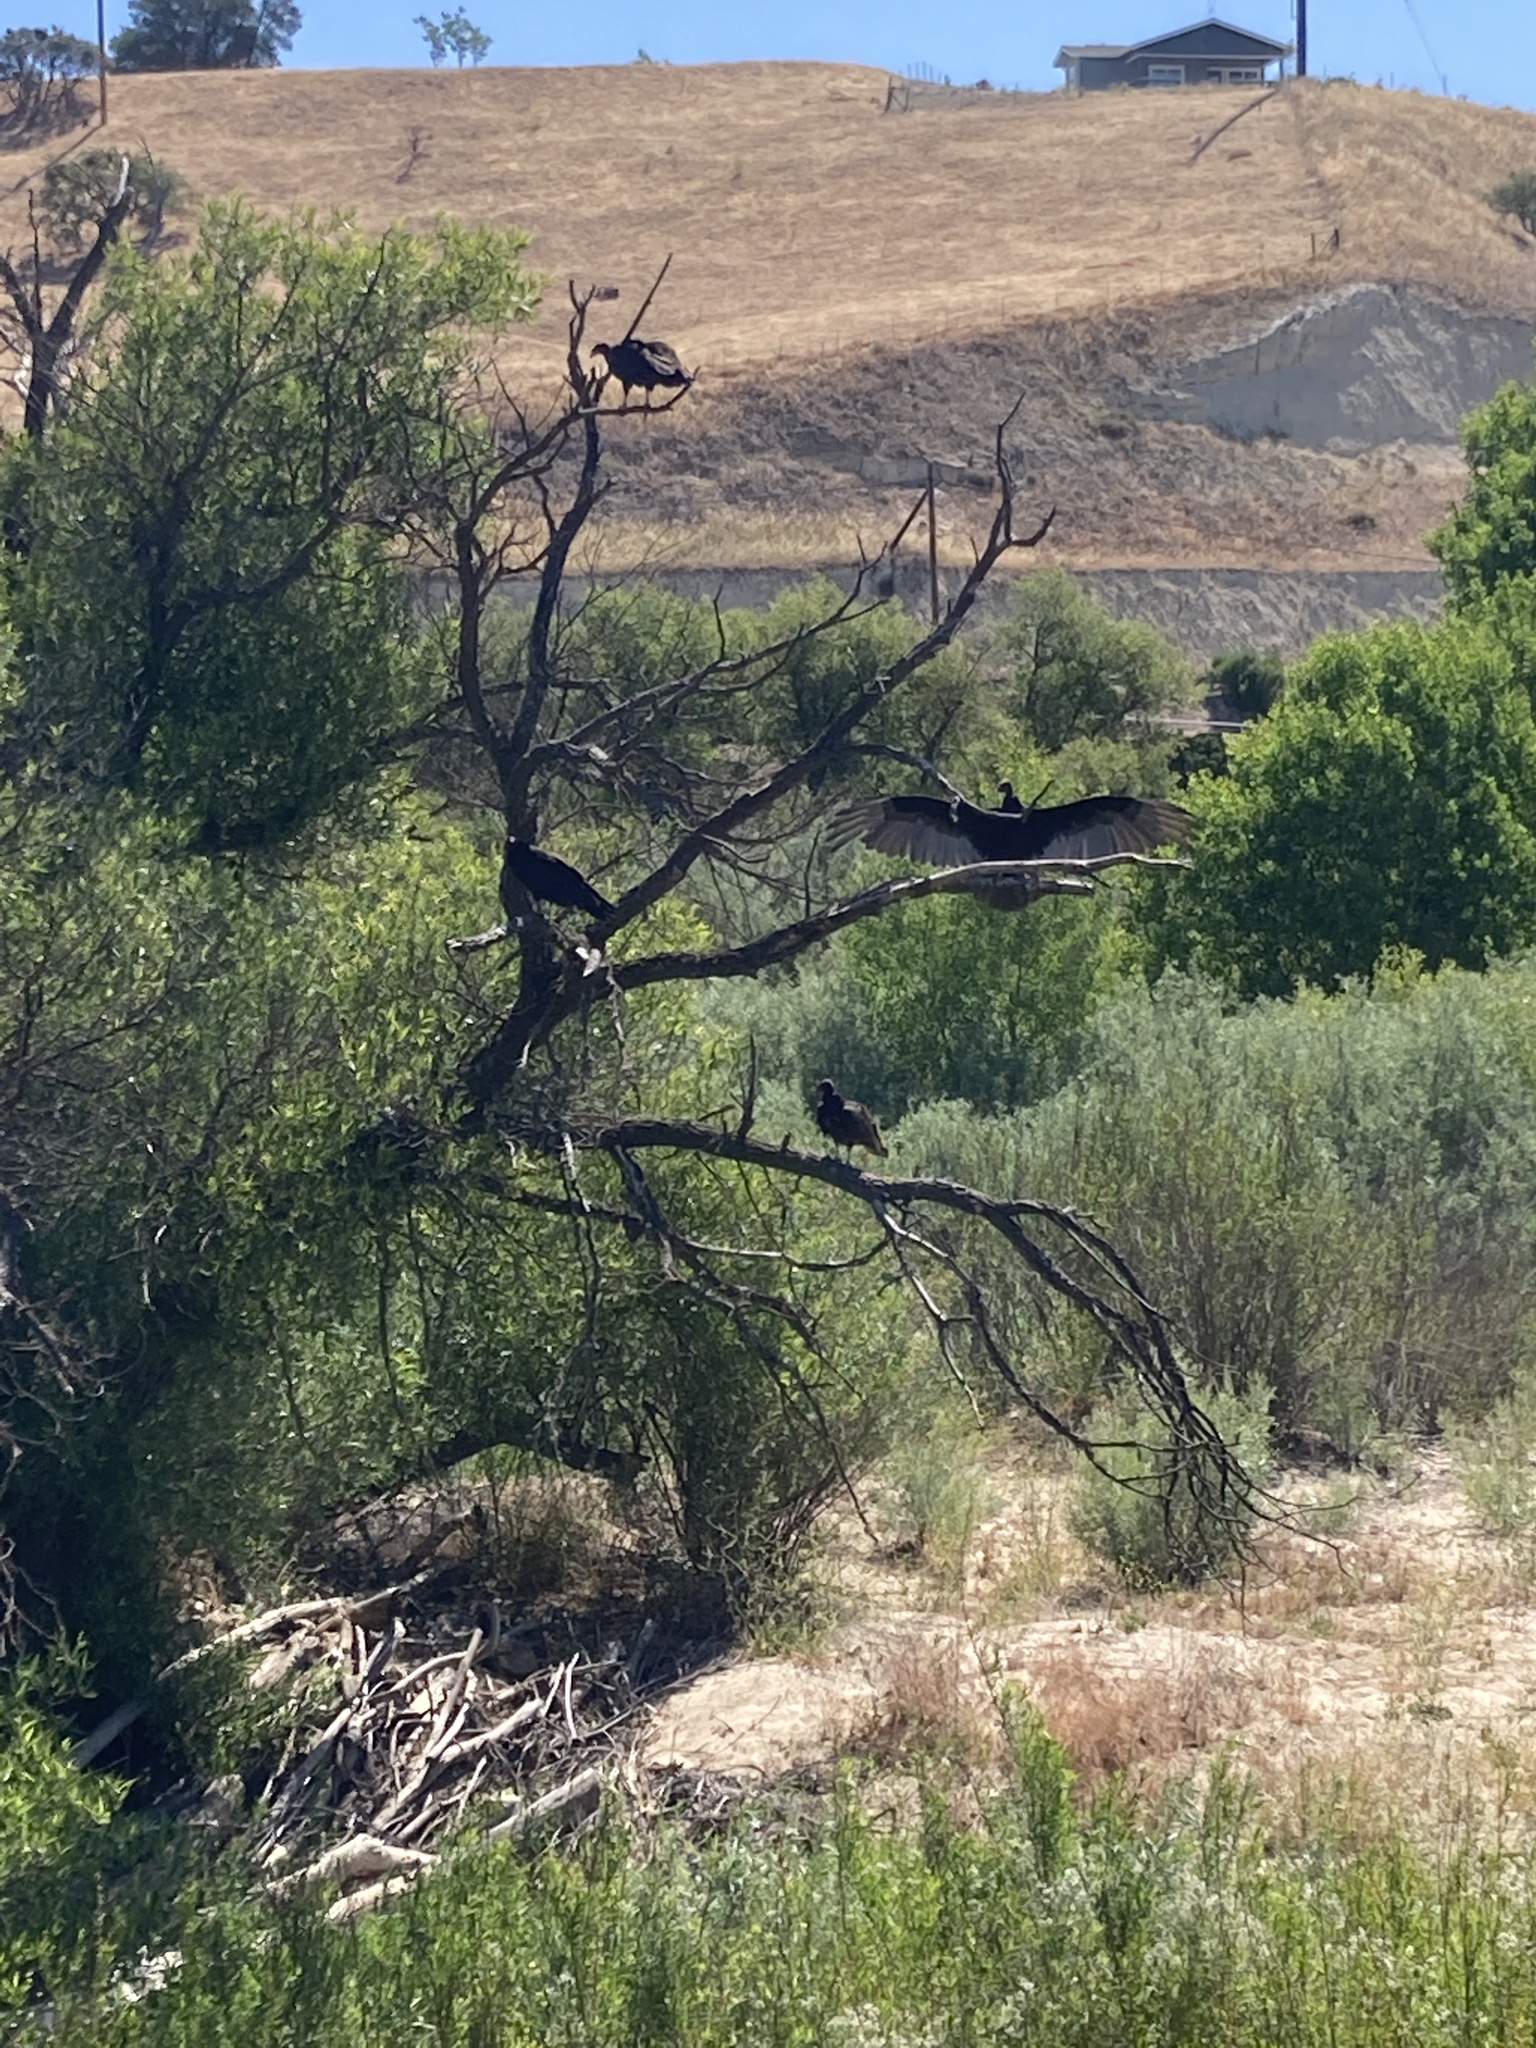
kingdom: Animalia
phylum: Chordata
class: Aves
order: Accipitriformes
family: Cathartidae
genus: Cathartes
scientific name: Cathartes aura
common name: Turkey vulture
